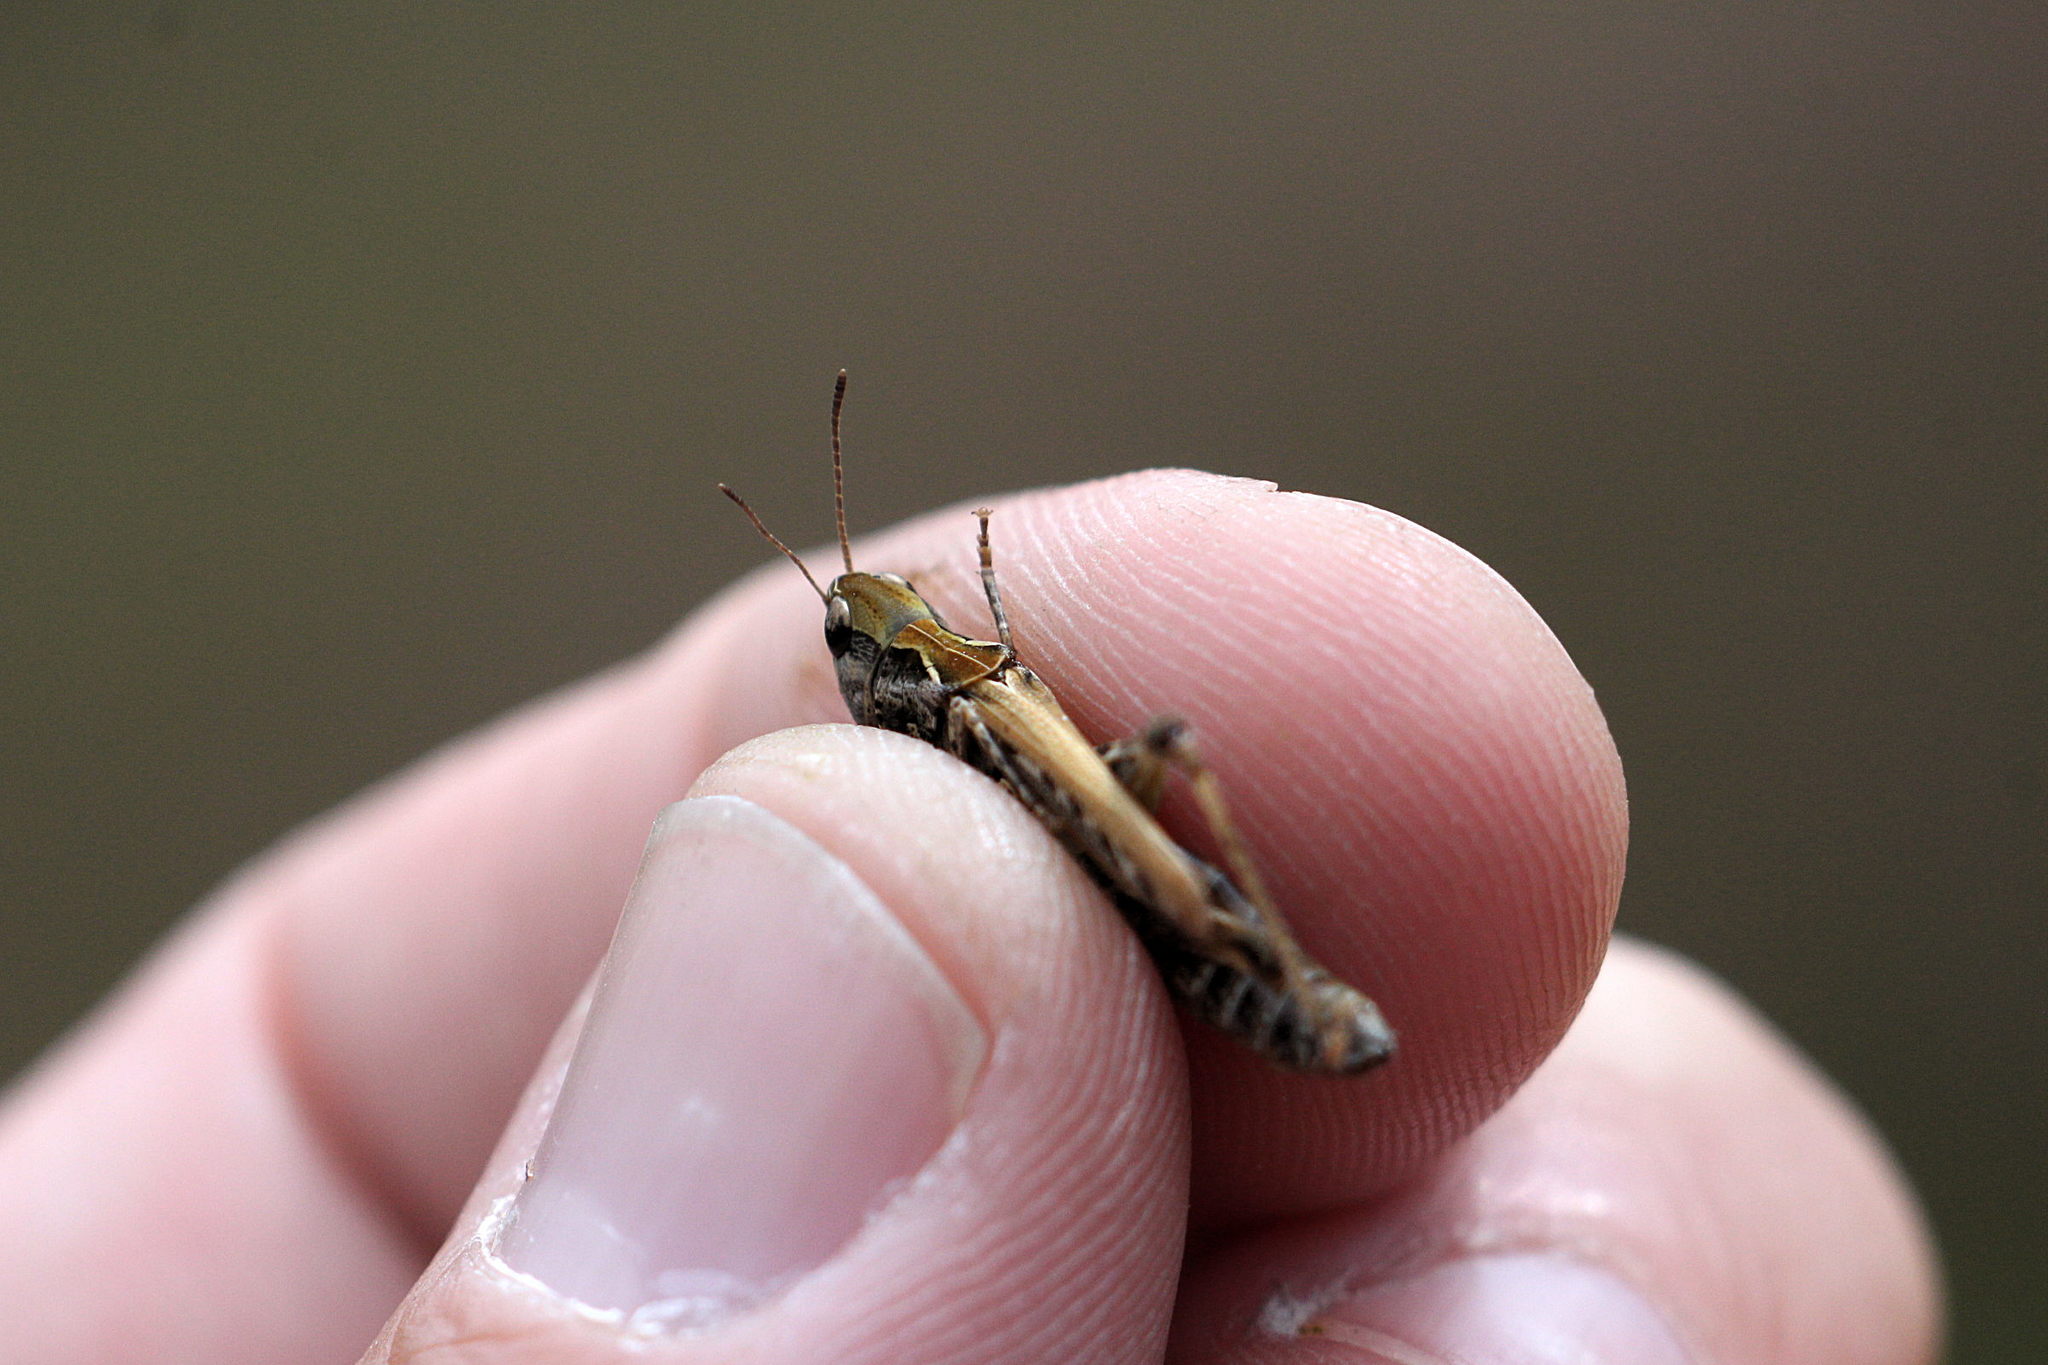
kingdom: Animalia
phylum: Arthropoda
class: Insecta
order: Orthoptera
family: Acrididae
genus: Myrmeleotettix
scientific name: Myrmeleotettix maculatus
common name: Mottled grasshopper
